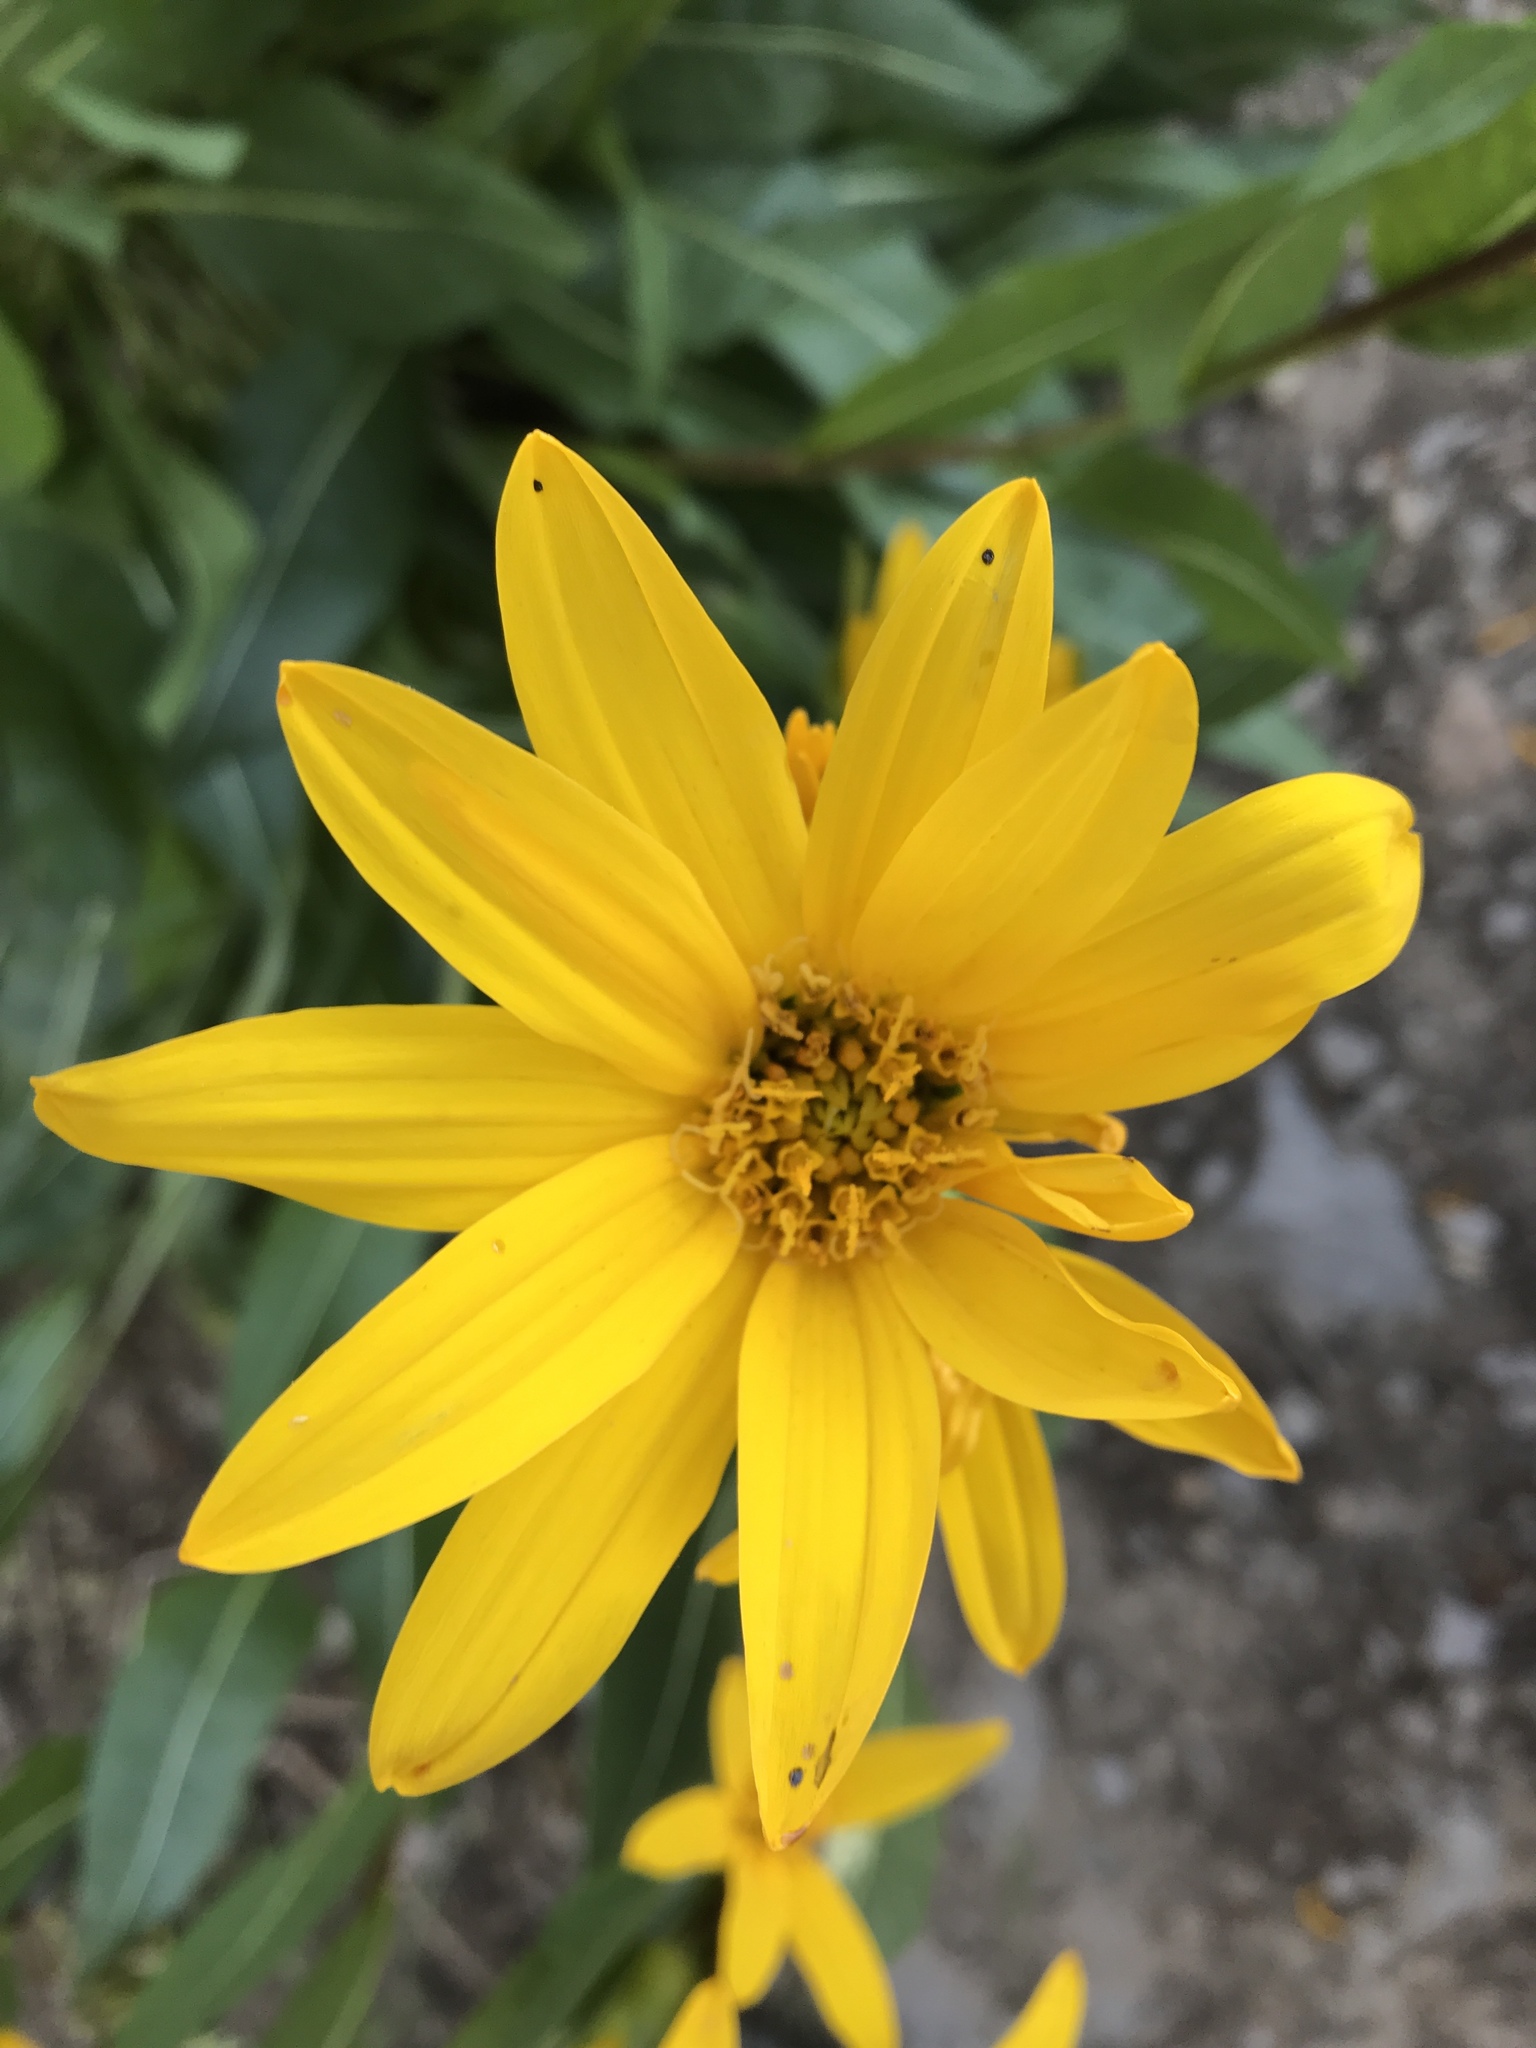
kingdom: Plantae
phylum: Tracheophyta
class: Magnoliopsida
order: Asterales
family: Asteraceae
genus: Wyethia
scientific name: Wyethia amplexicaulis
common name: Northern mule's-ears
